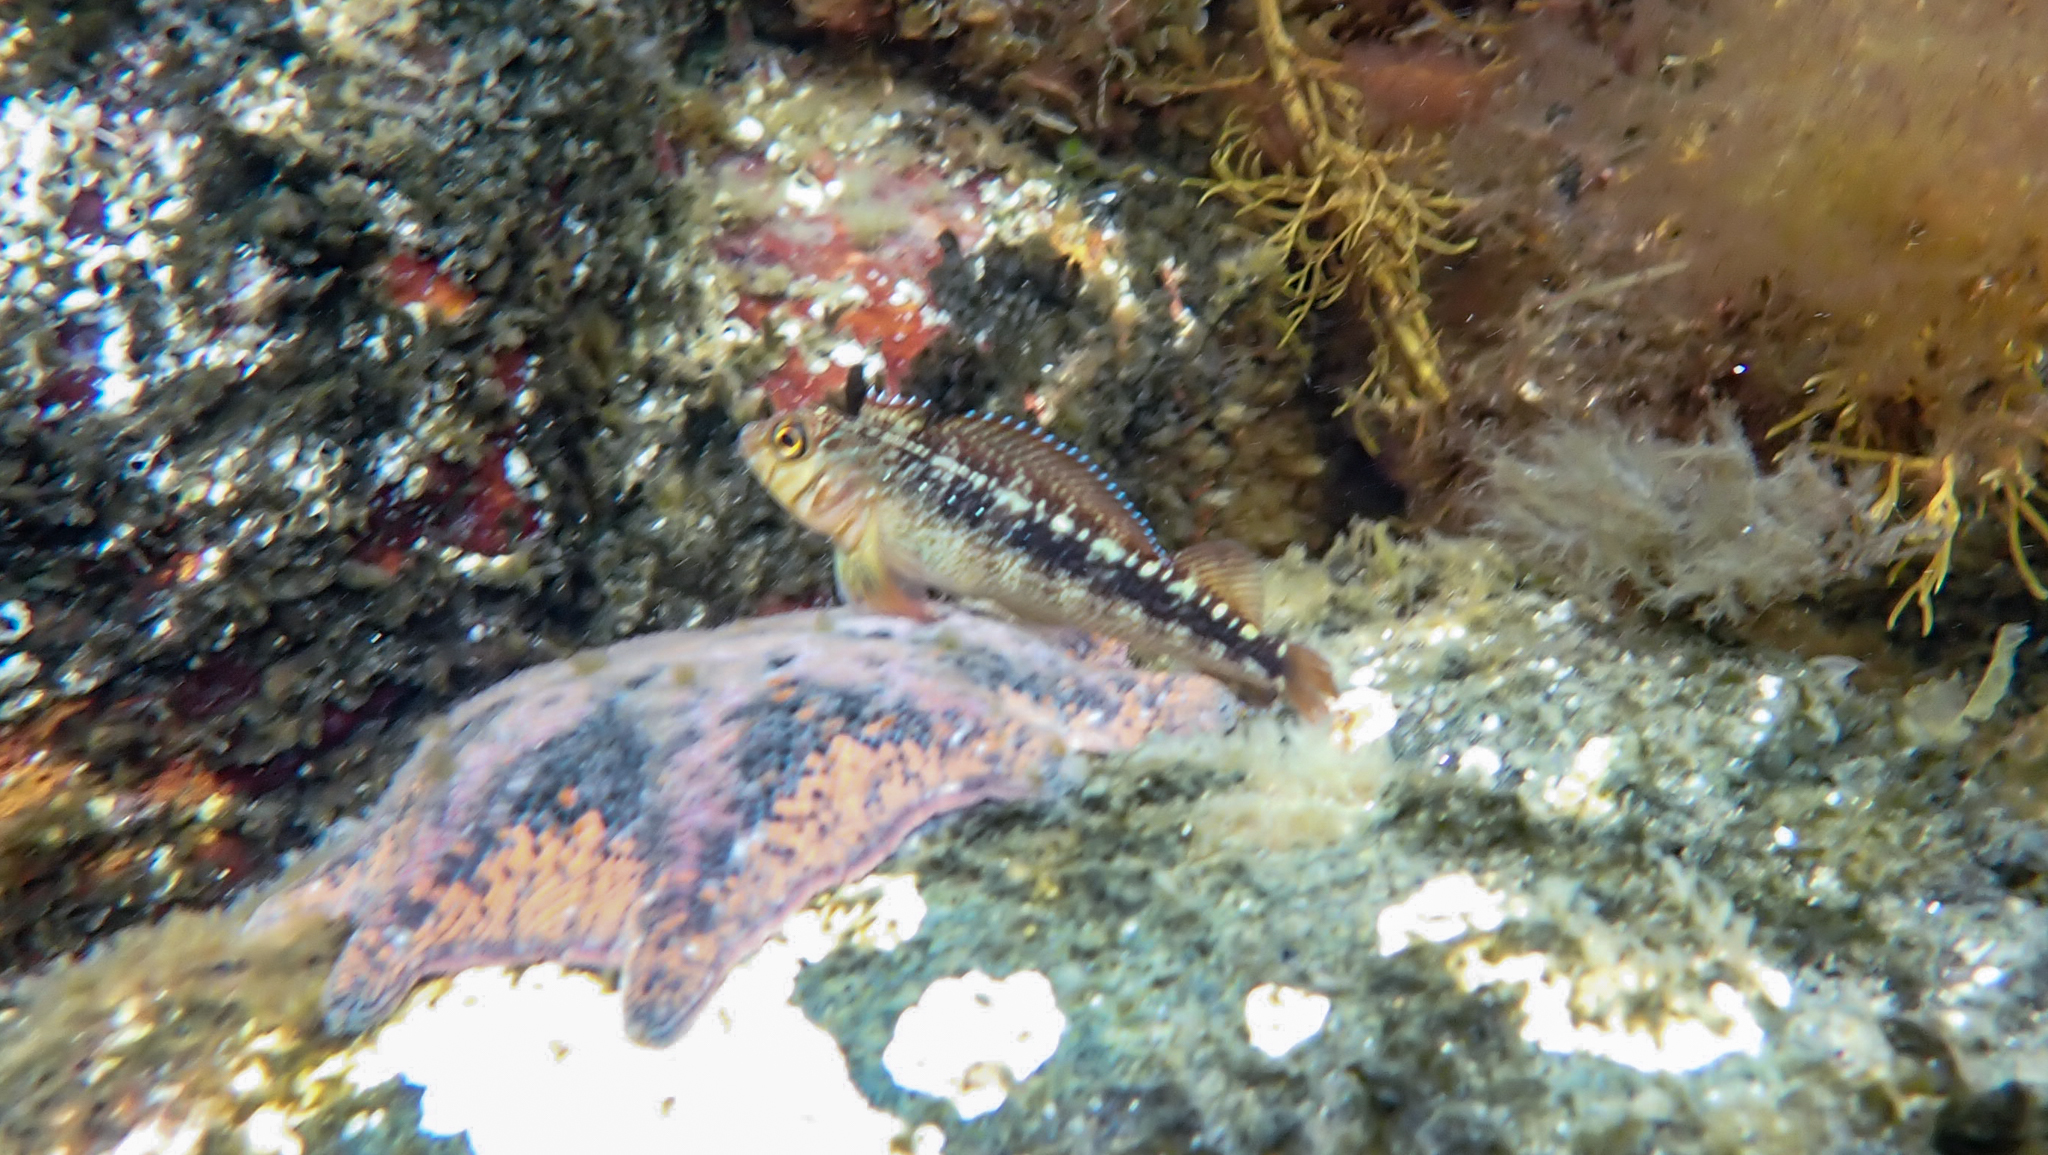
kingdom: Animalia
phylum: Chordata
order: Perciformes
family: Tripterygiidae
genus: Forsterygion
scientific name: Forsterygion varium
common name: Variable triplefin
